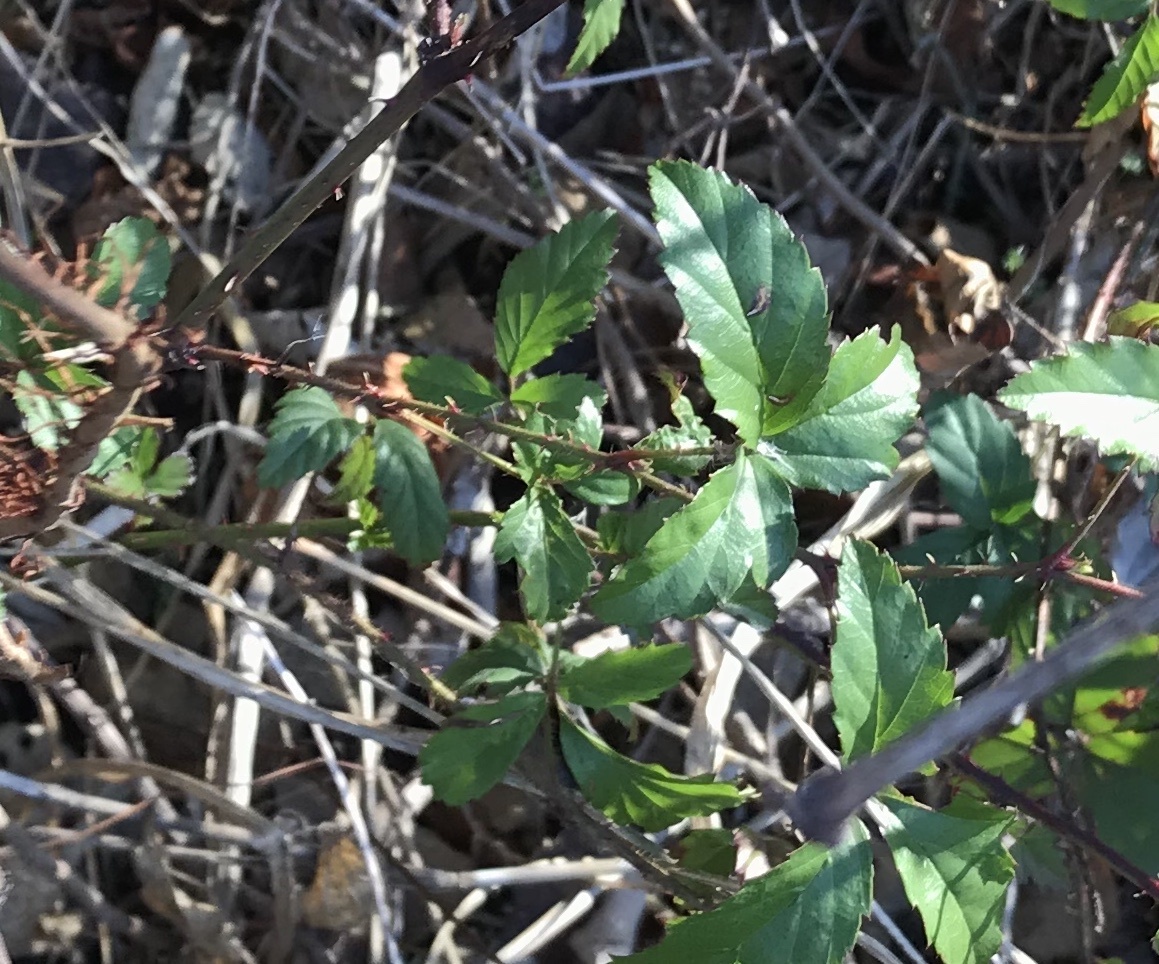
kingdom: Plantae
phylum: Tracheophyta
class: Magnoliopsida
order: Rosales
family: Rosaceae
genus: Rubus
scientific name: Rubus trivialis
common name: Southern dewberry
